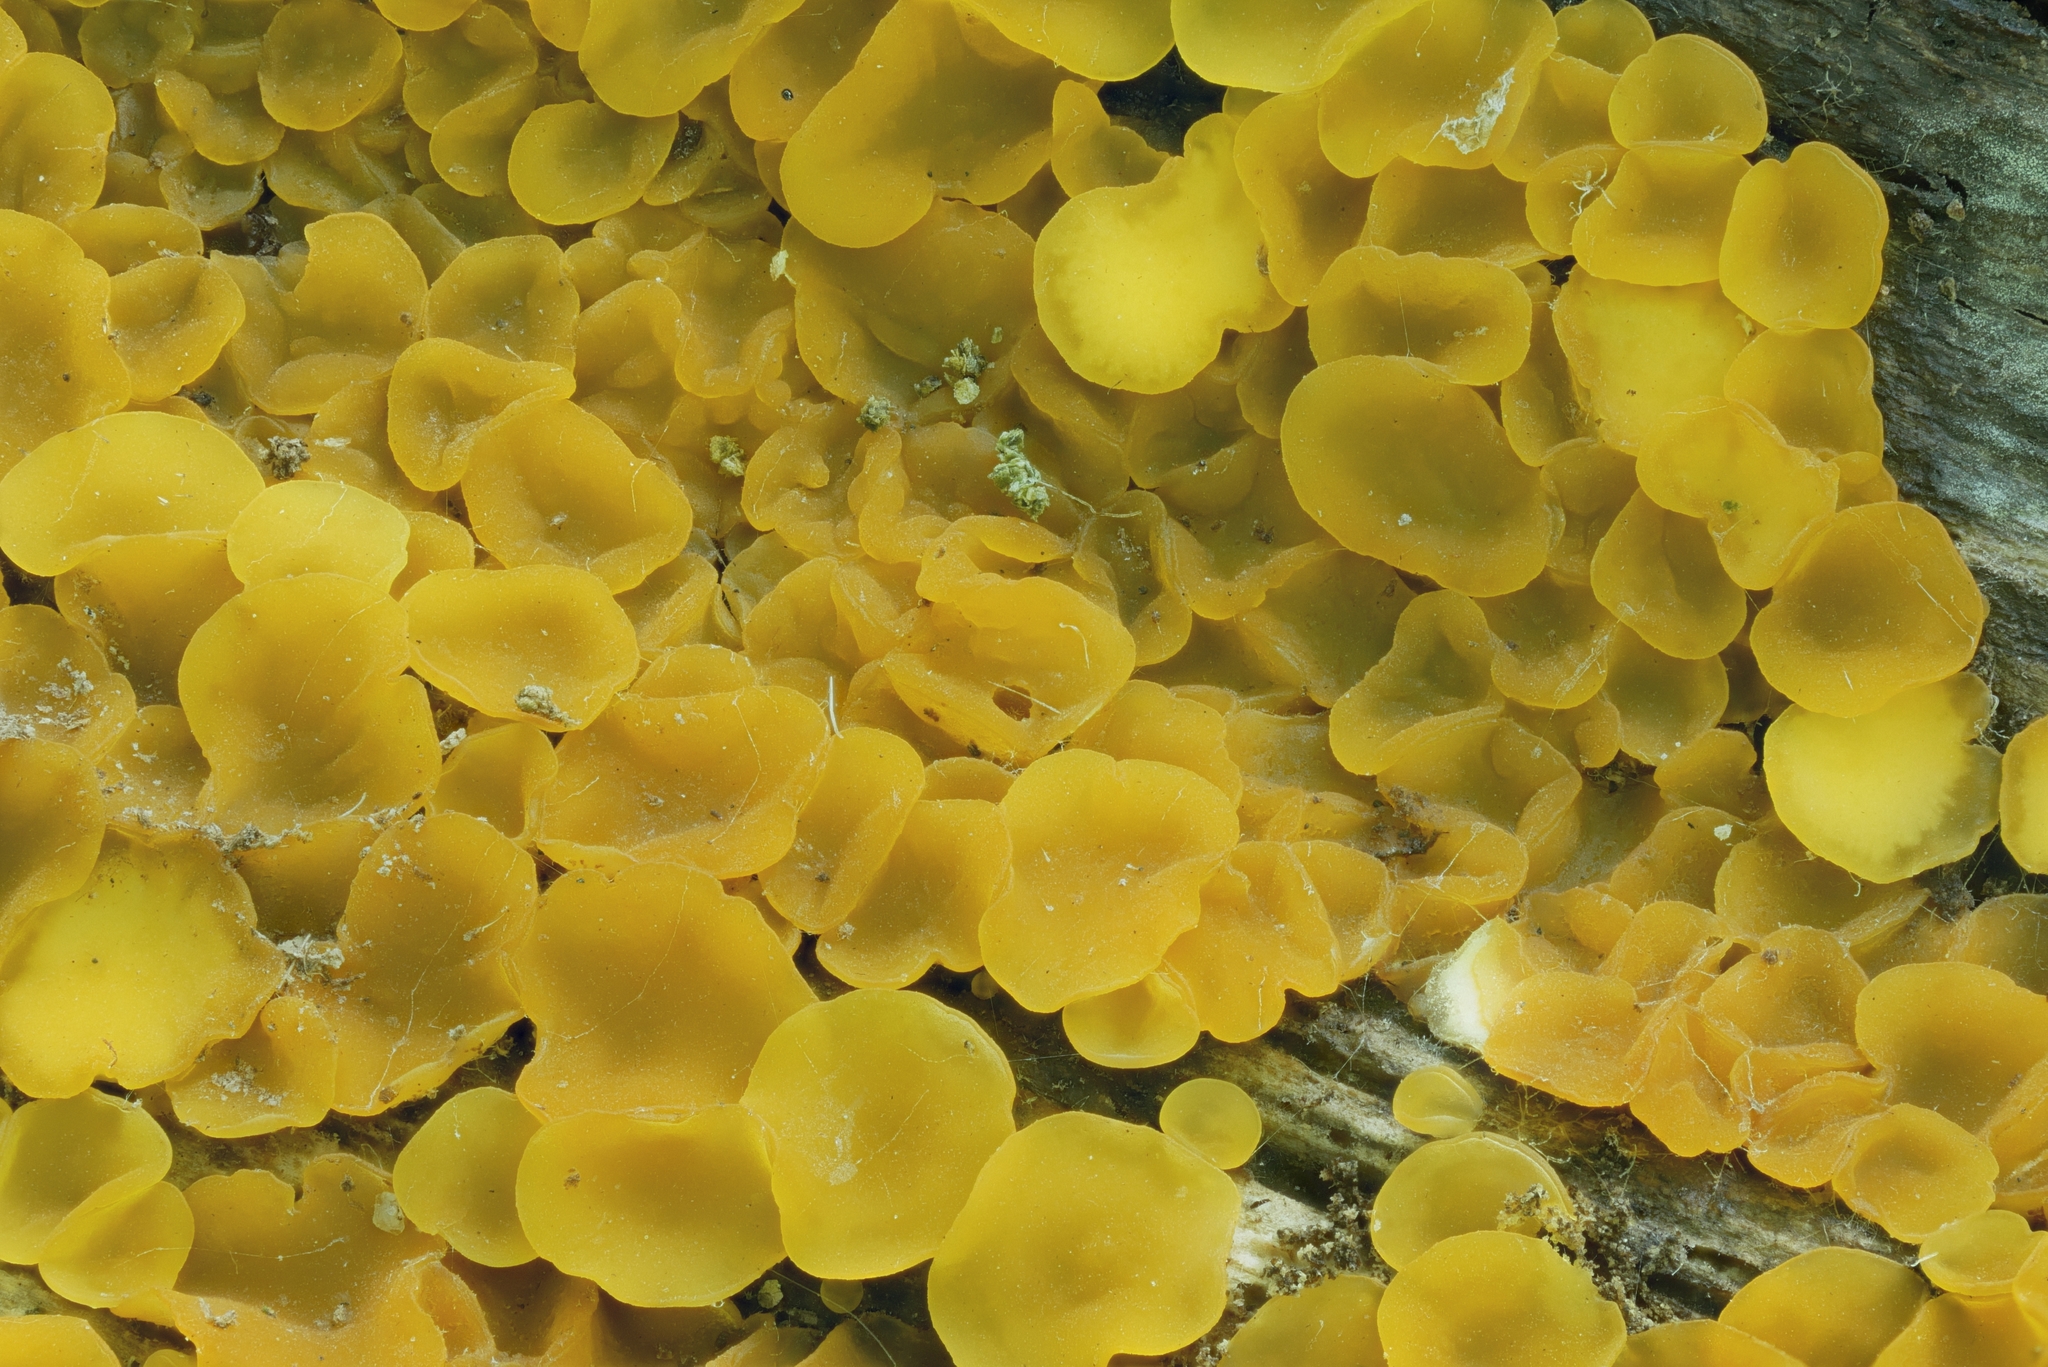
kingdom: Fungi
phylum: Ascomycota
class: Orbiliomycetes
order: Orbiliales
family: Orbiliaceae
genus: Orbilia
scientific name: Orbilia xanthostigma
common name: Common glasscup
